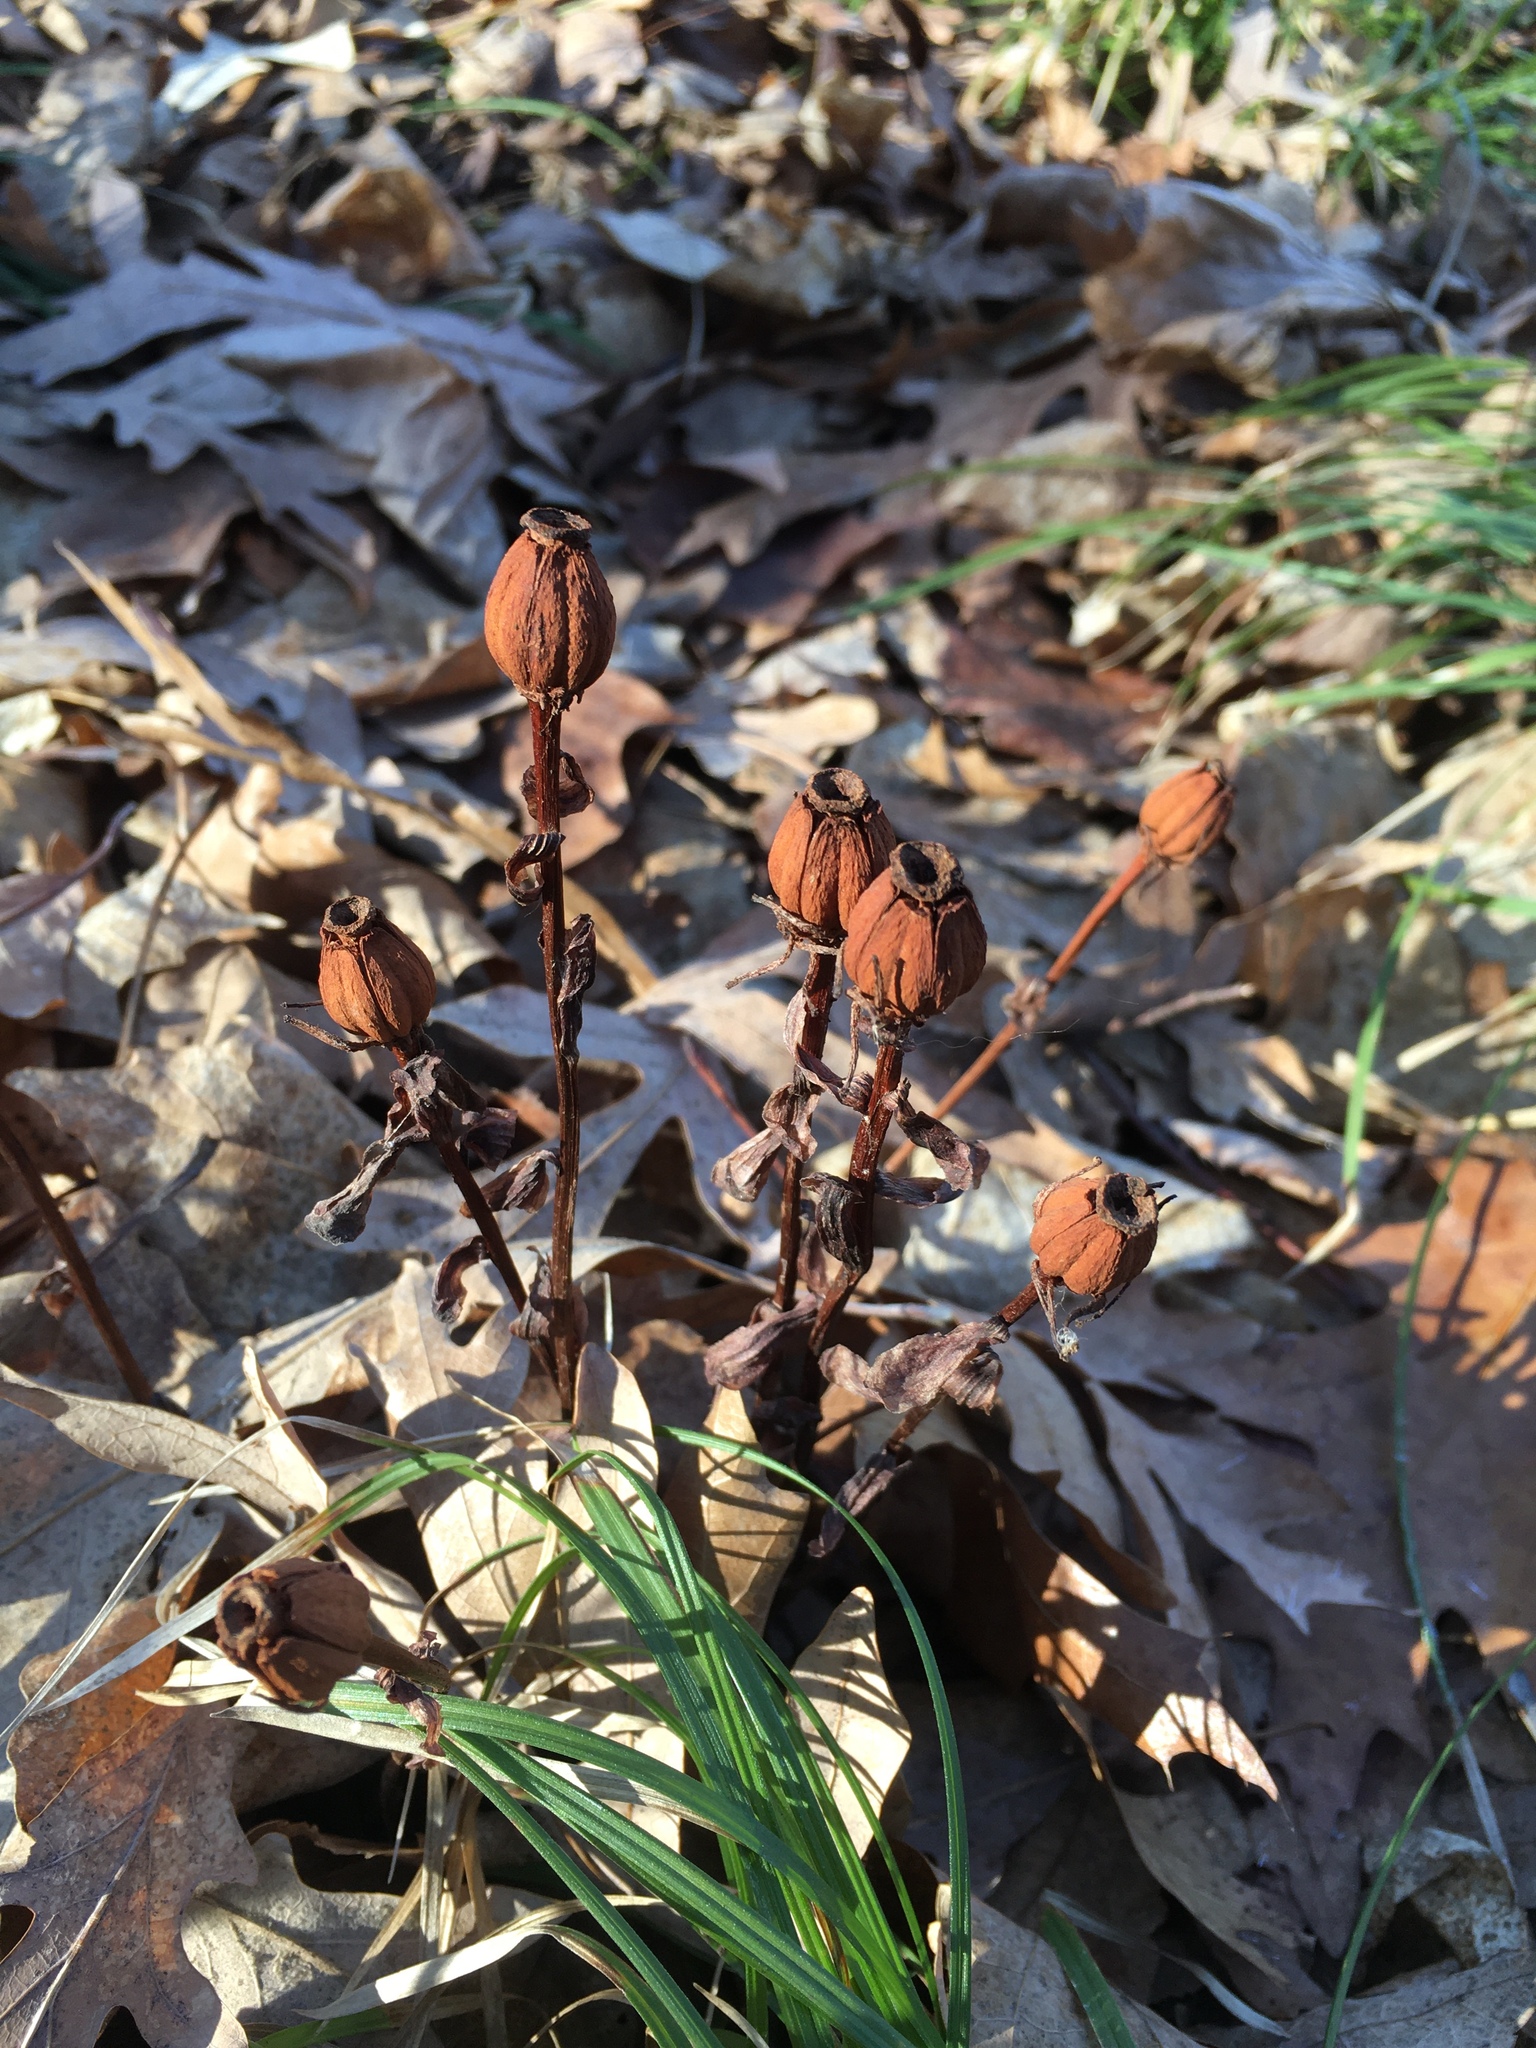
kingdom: Plantae
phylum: Tracheophyta
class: Magnoliopsida
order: Ericales
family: Ericaceae
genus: Monotropa
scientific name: Monotropa uniflora
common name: Convulsion root
